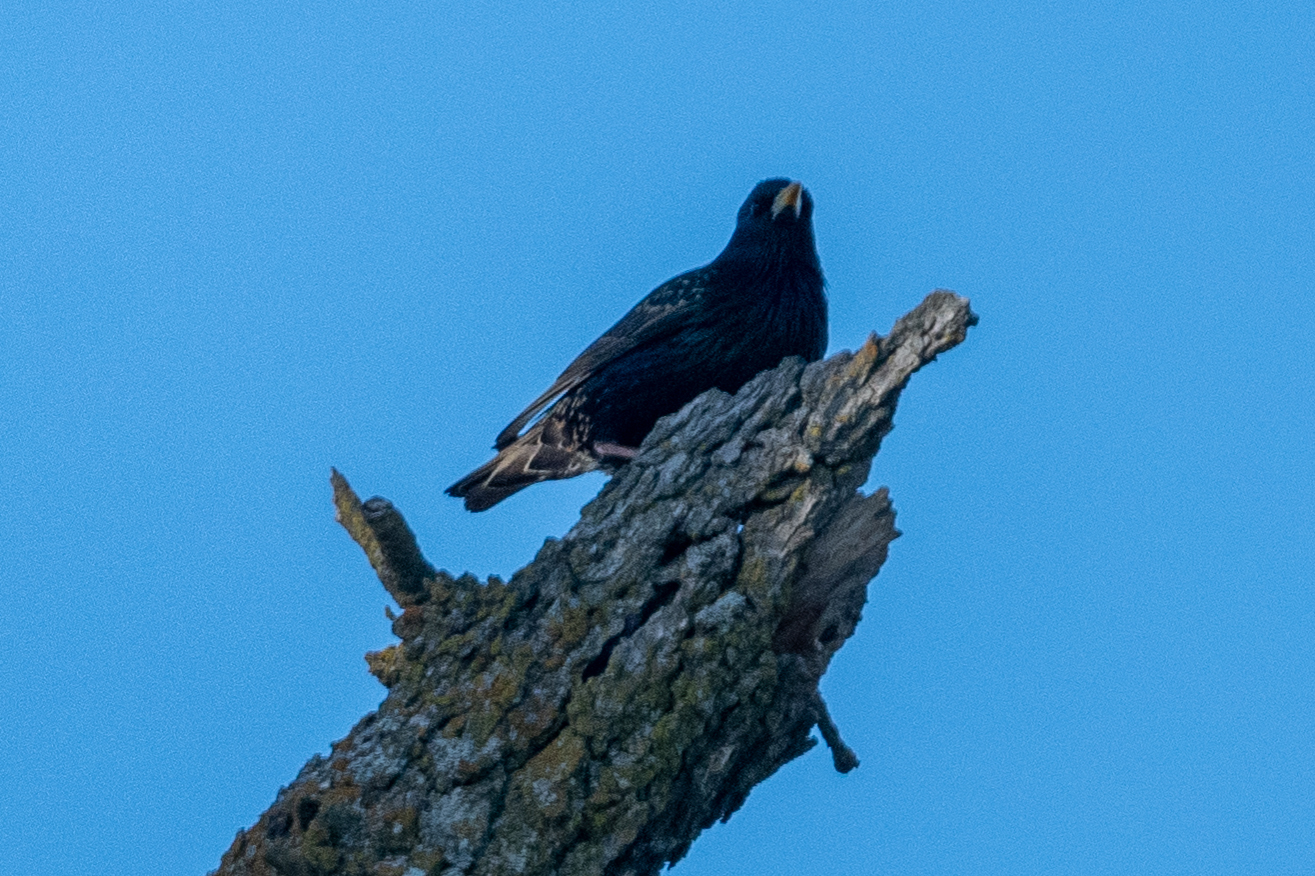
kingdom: Animalia
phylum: Chordata
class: Aves
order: Passeriformes
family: Sturnidae
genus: Sturnus
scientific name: Sturnus vulgaris
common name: Common starling
